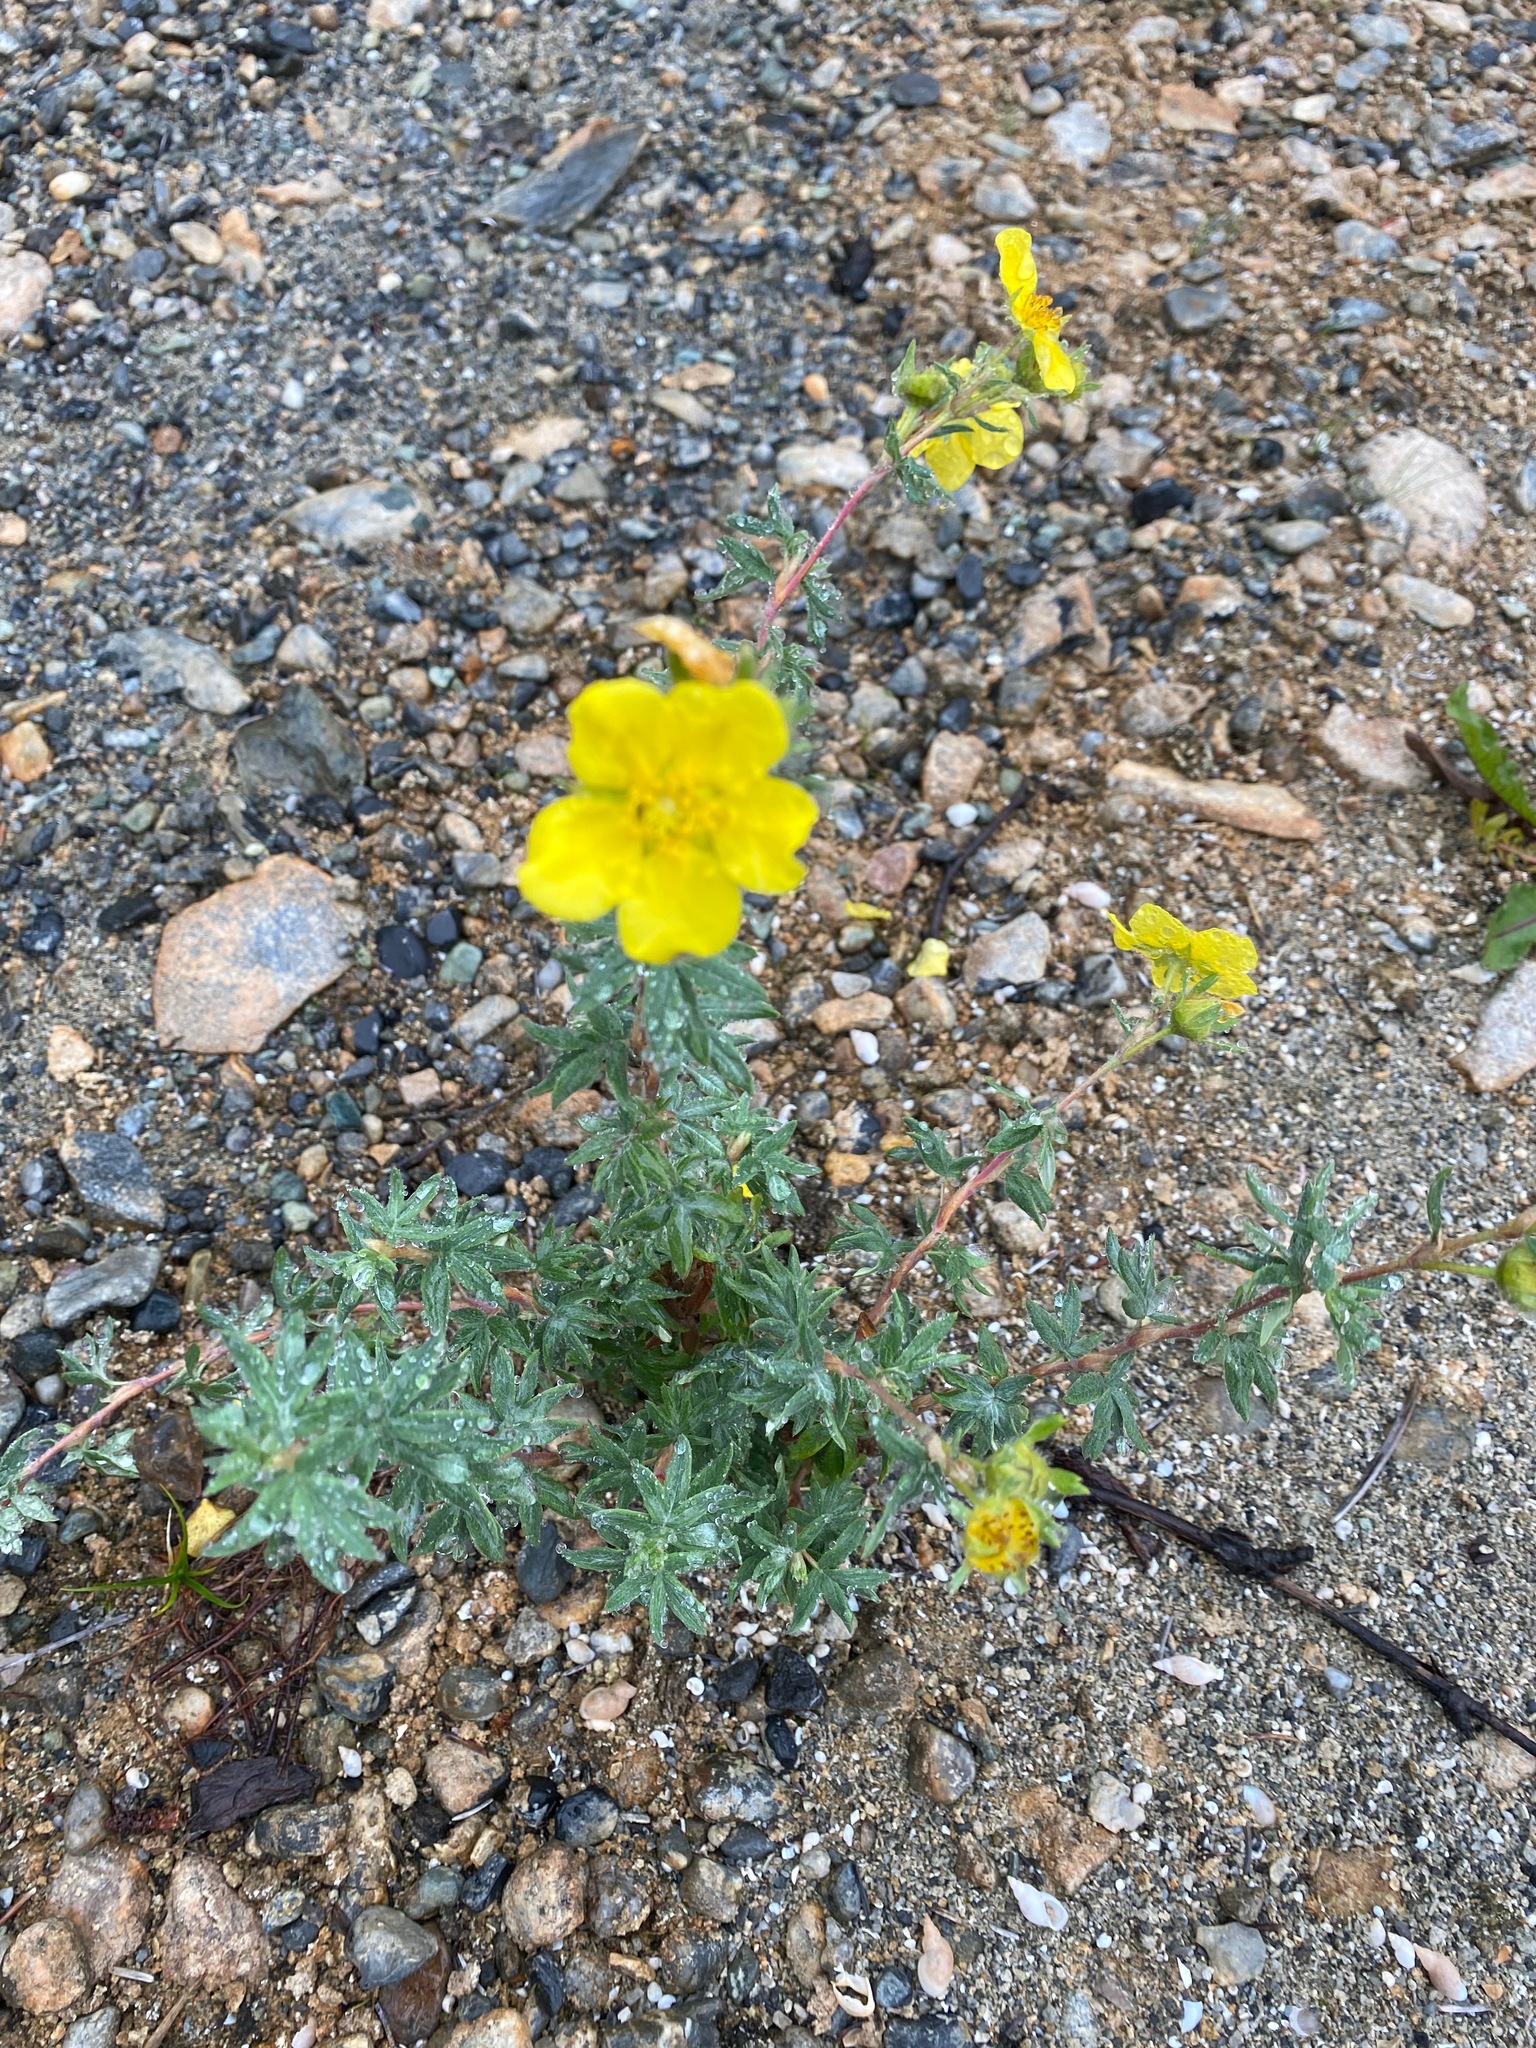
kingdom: Plantae
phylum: Tracheophyta
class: Magnoliopsida
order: Rosales
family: Rosaceae
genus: Dasiphora
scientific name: Dasiphora fruticosa
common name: Shrubby cinquefoil
